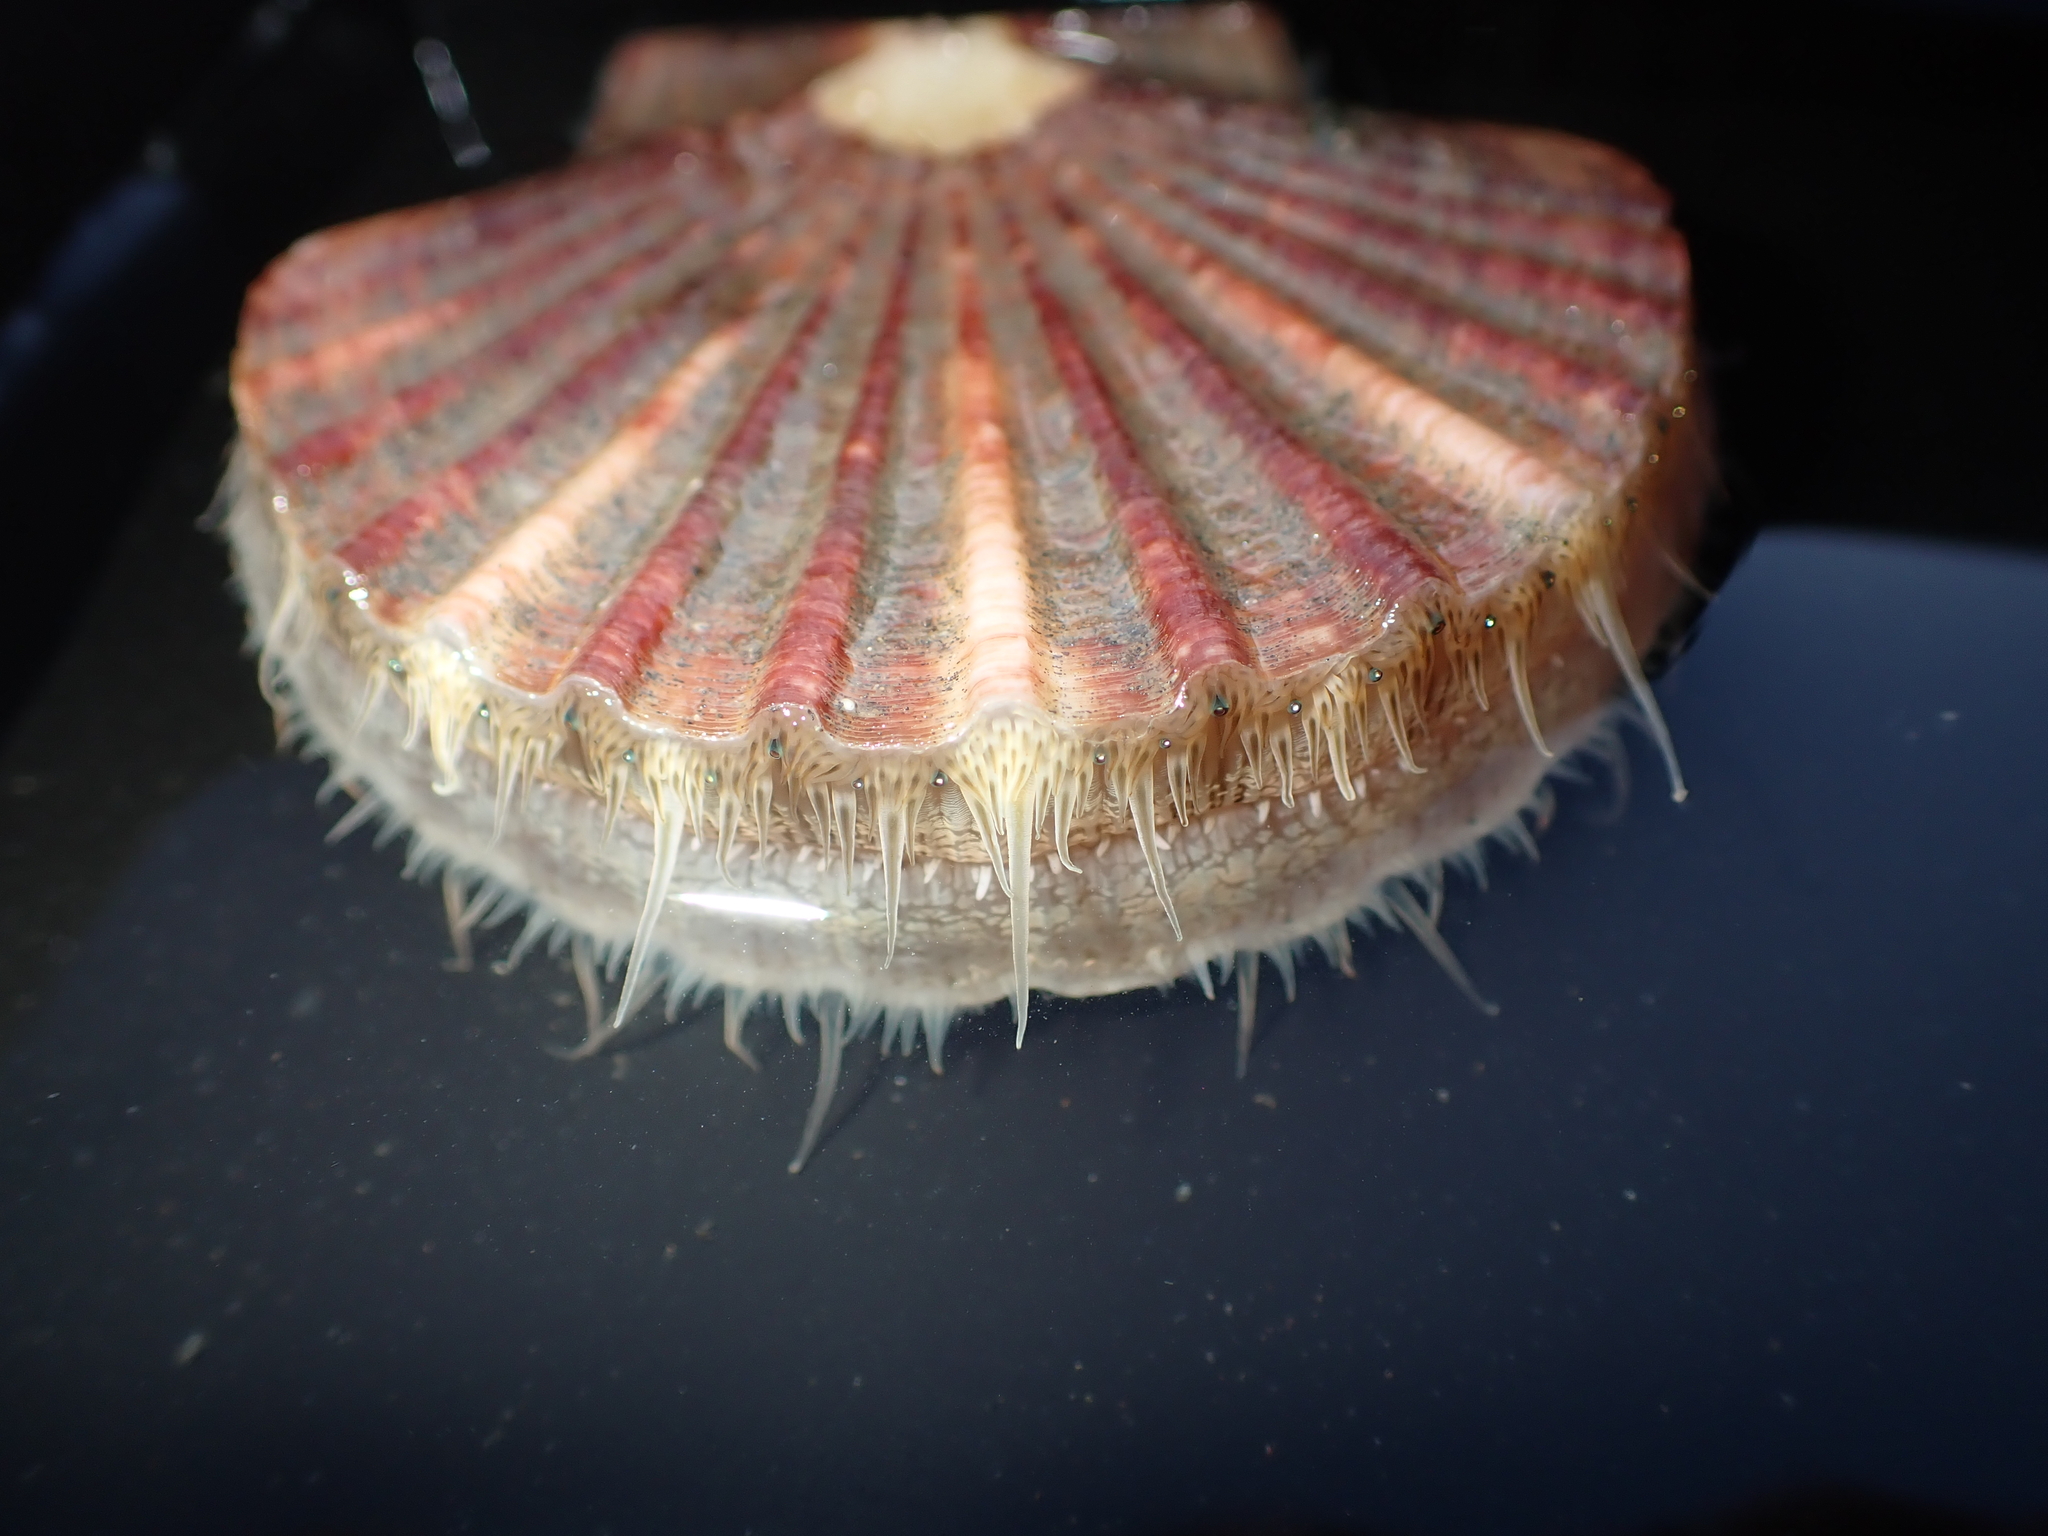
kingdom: Animalia
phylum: Mollusca
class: Bivalvia
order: Pectinida
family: Pectinidae
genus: Pecten
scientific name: Pecten novaezelandiae
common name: New zealand scallop
